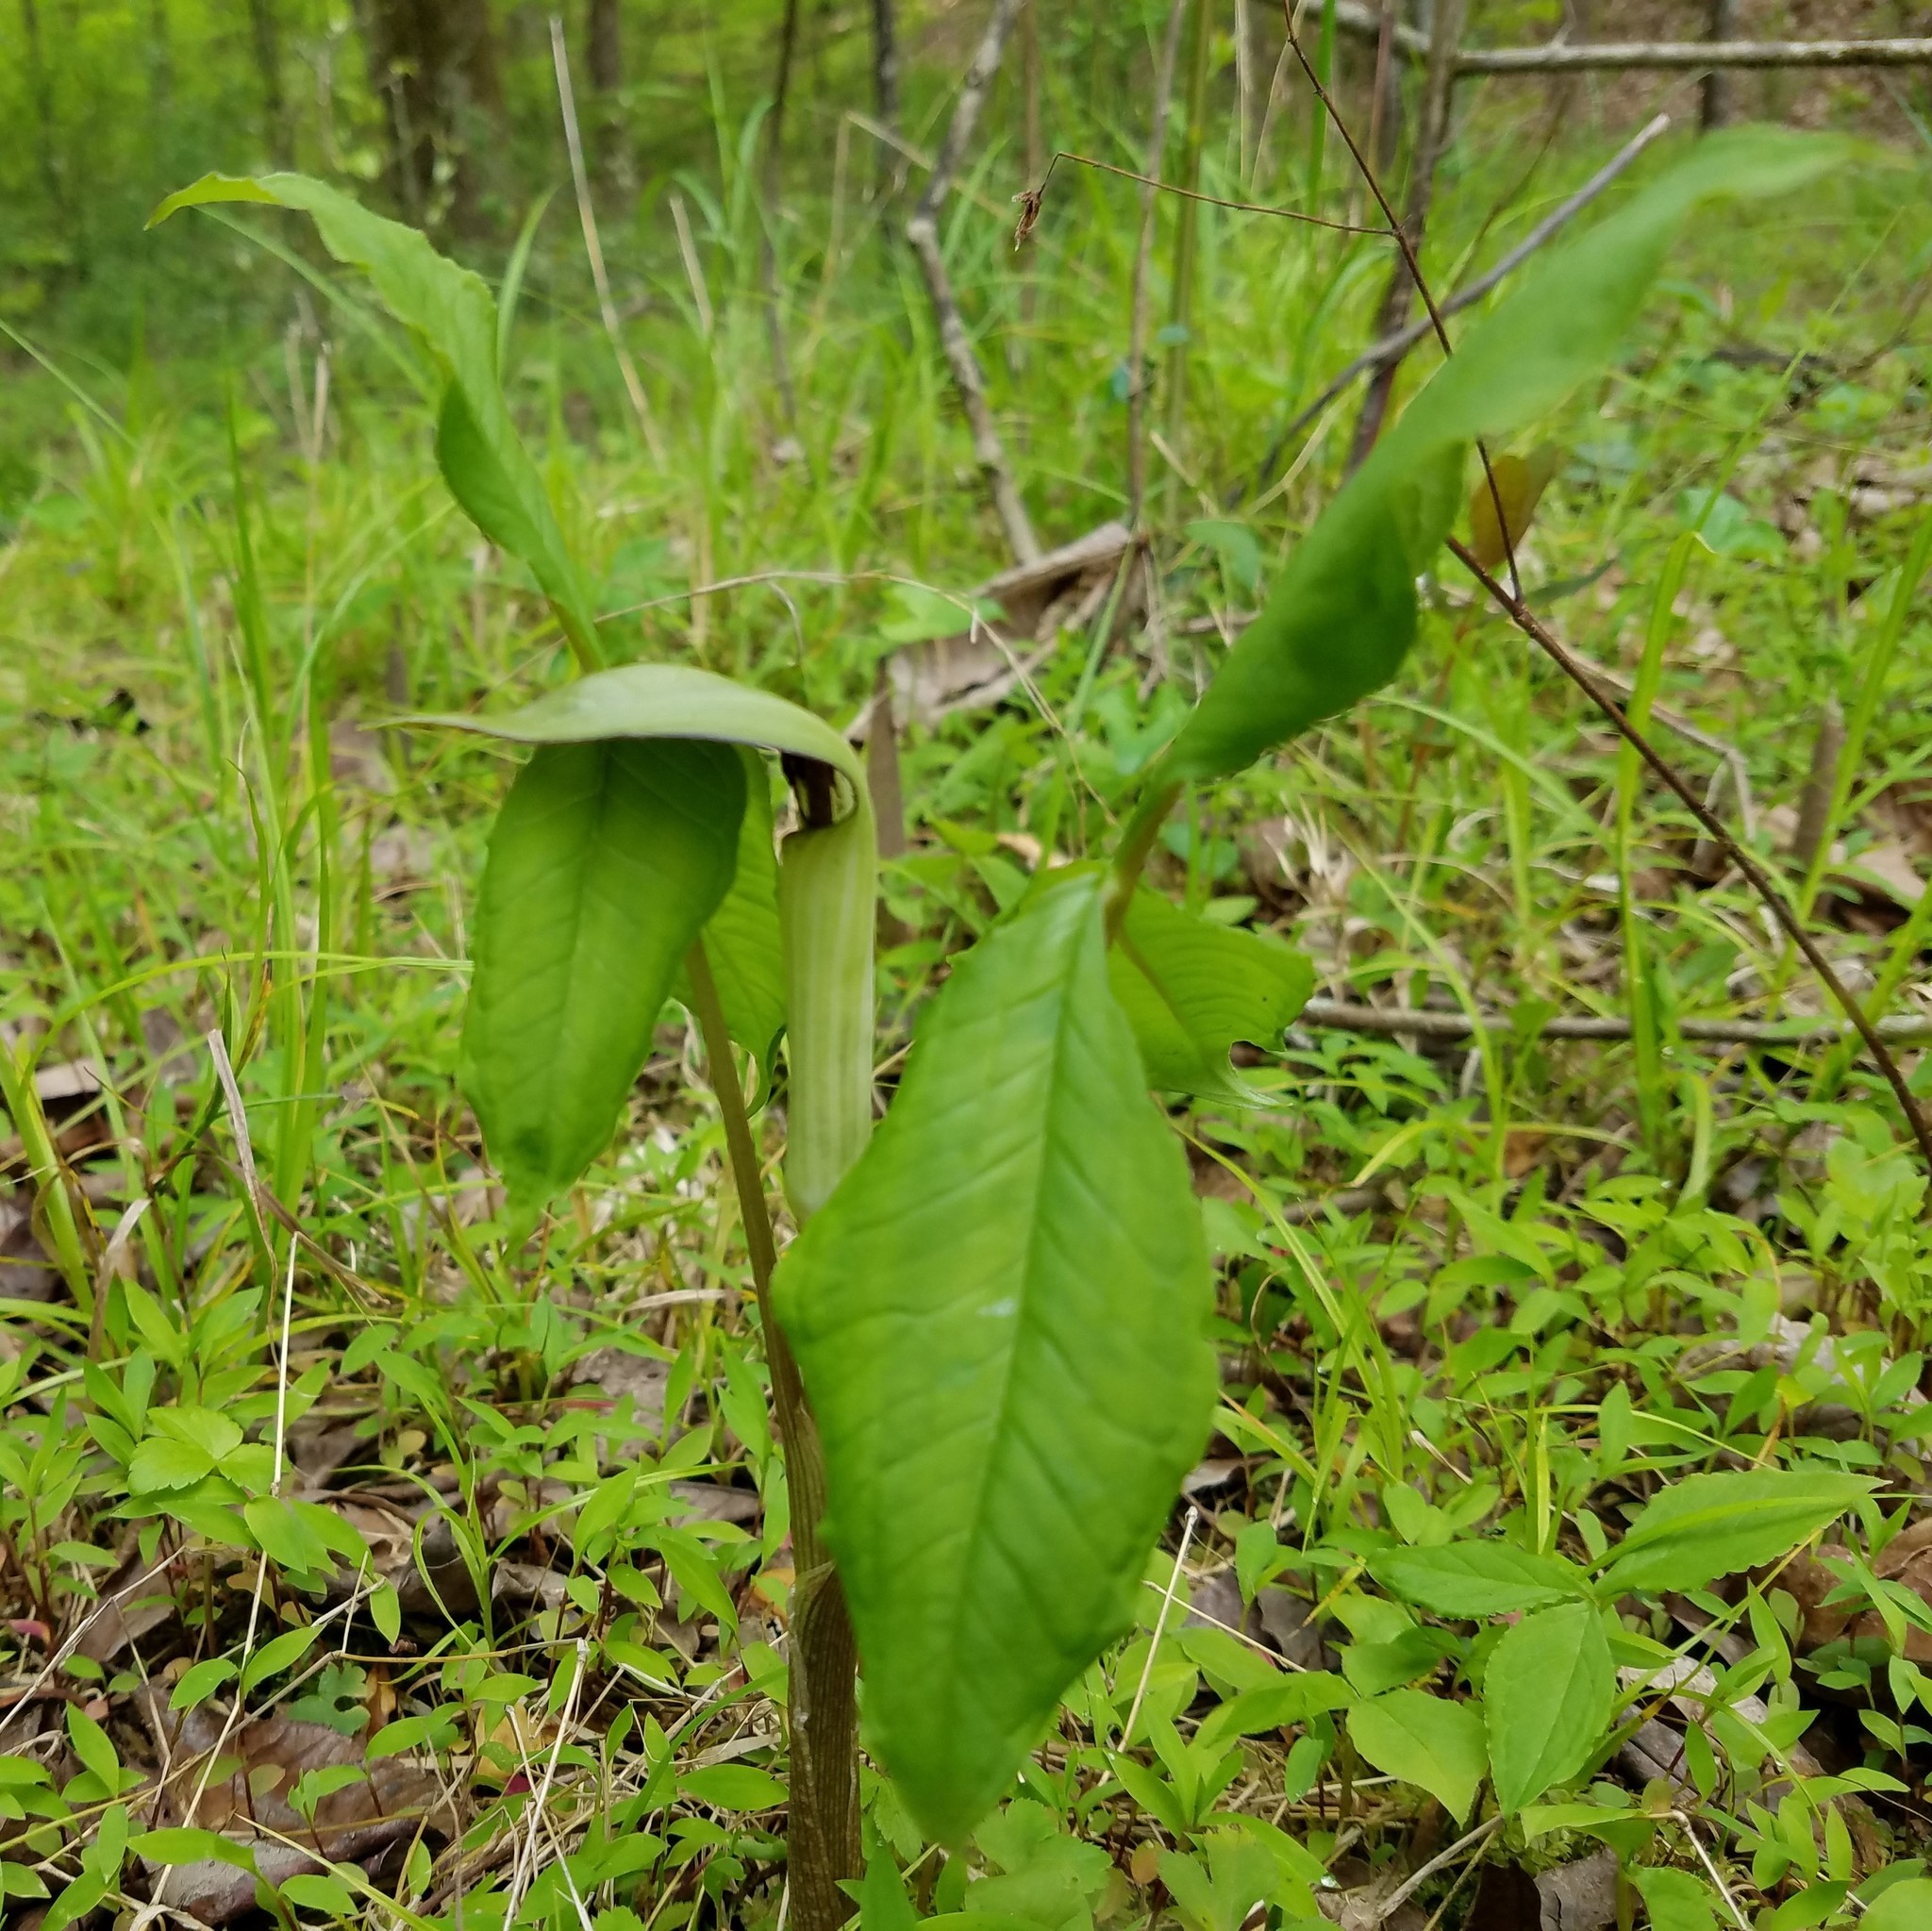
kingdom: Plantae
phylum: Tracheophyta
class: Liliopsida
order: Alismatales
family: Araceae
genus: Arisaema
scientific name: Arisaema triphyllum
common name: Jack-in-the-pulpit
